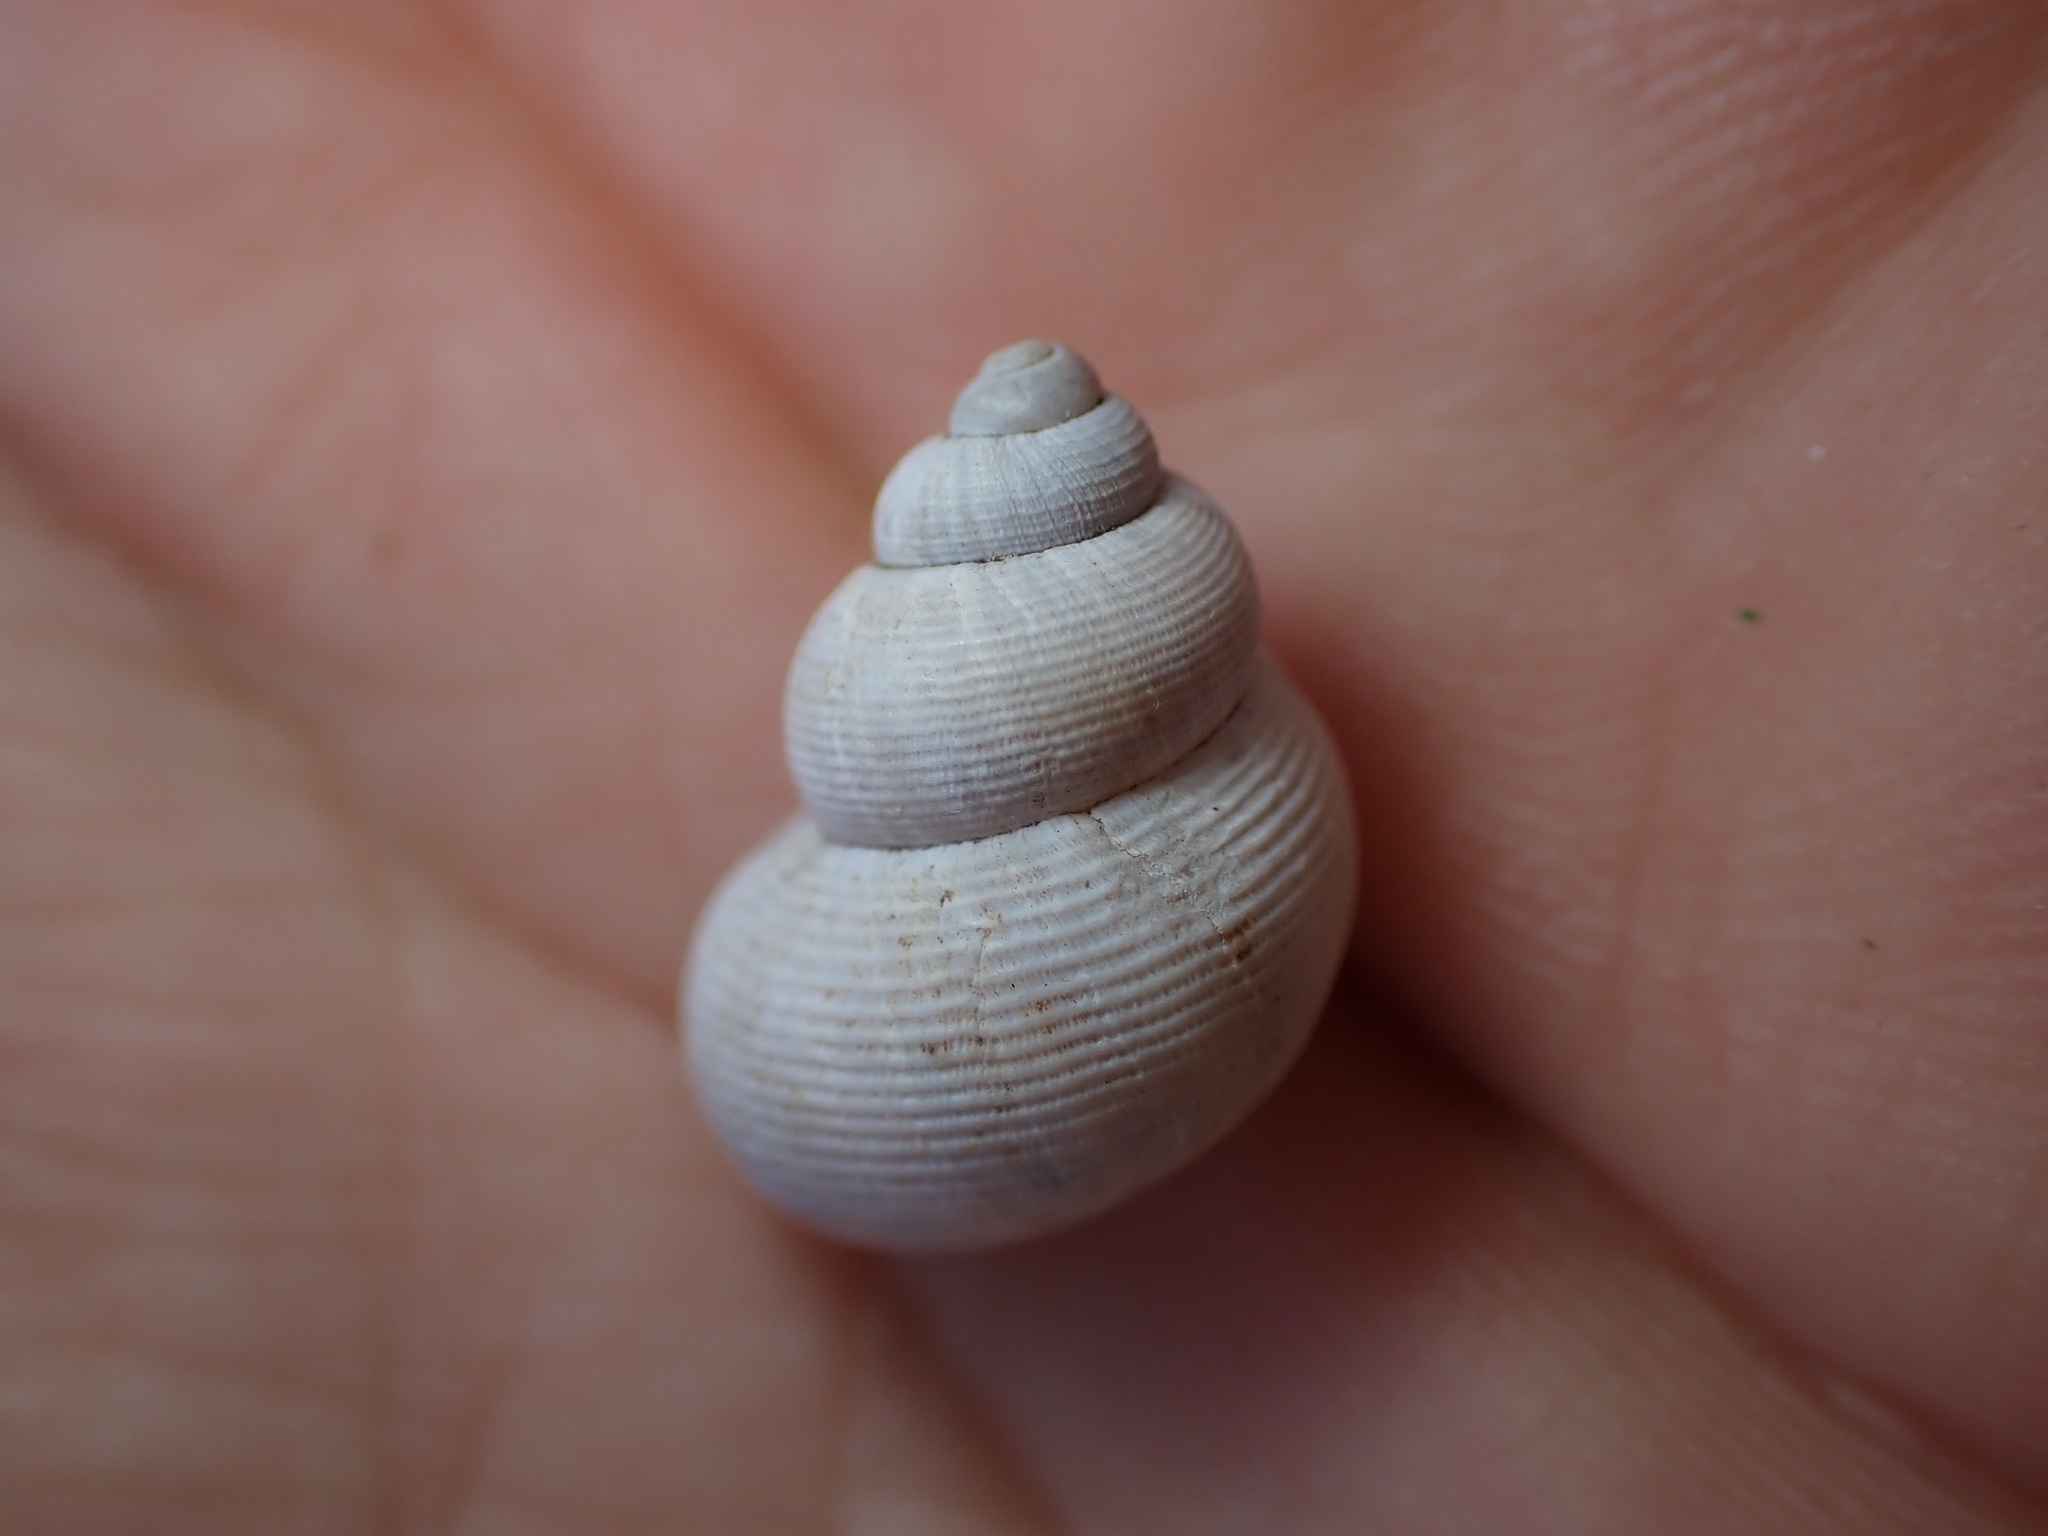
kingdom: Animalia
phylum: Mollusca
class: Gastropoda
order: Littorinimorpha
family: Pomatiidae
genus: Pomatias
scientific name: Pomatias elegans
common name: Red-mouthed snail
